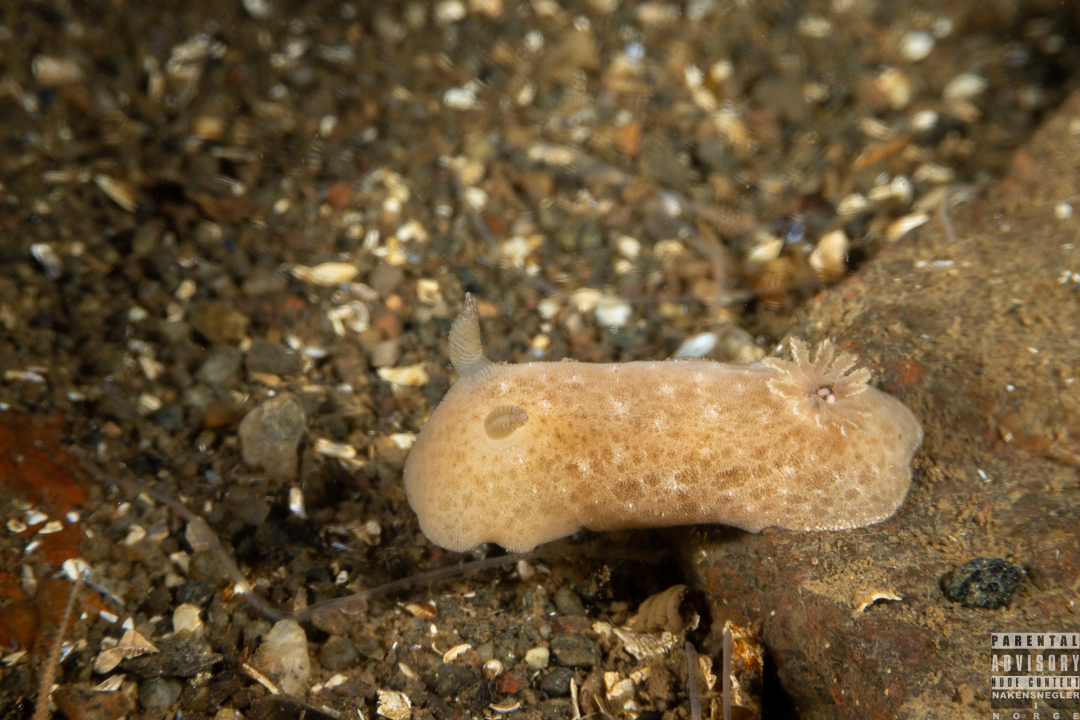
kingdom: Animalia
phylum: Mollusca
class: Gastropoda
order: Nudibranchia
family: Discodorididae
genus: Jorunna
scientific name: Jorunna tomentosa
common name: Grey sea slug
